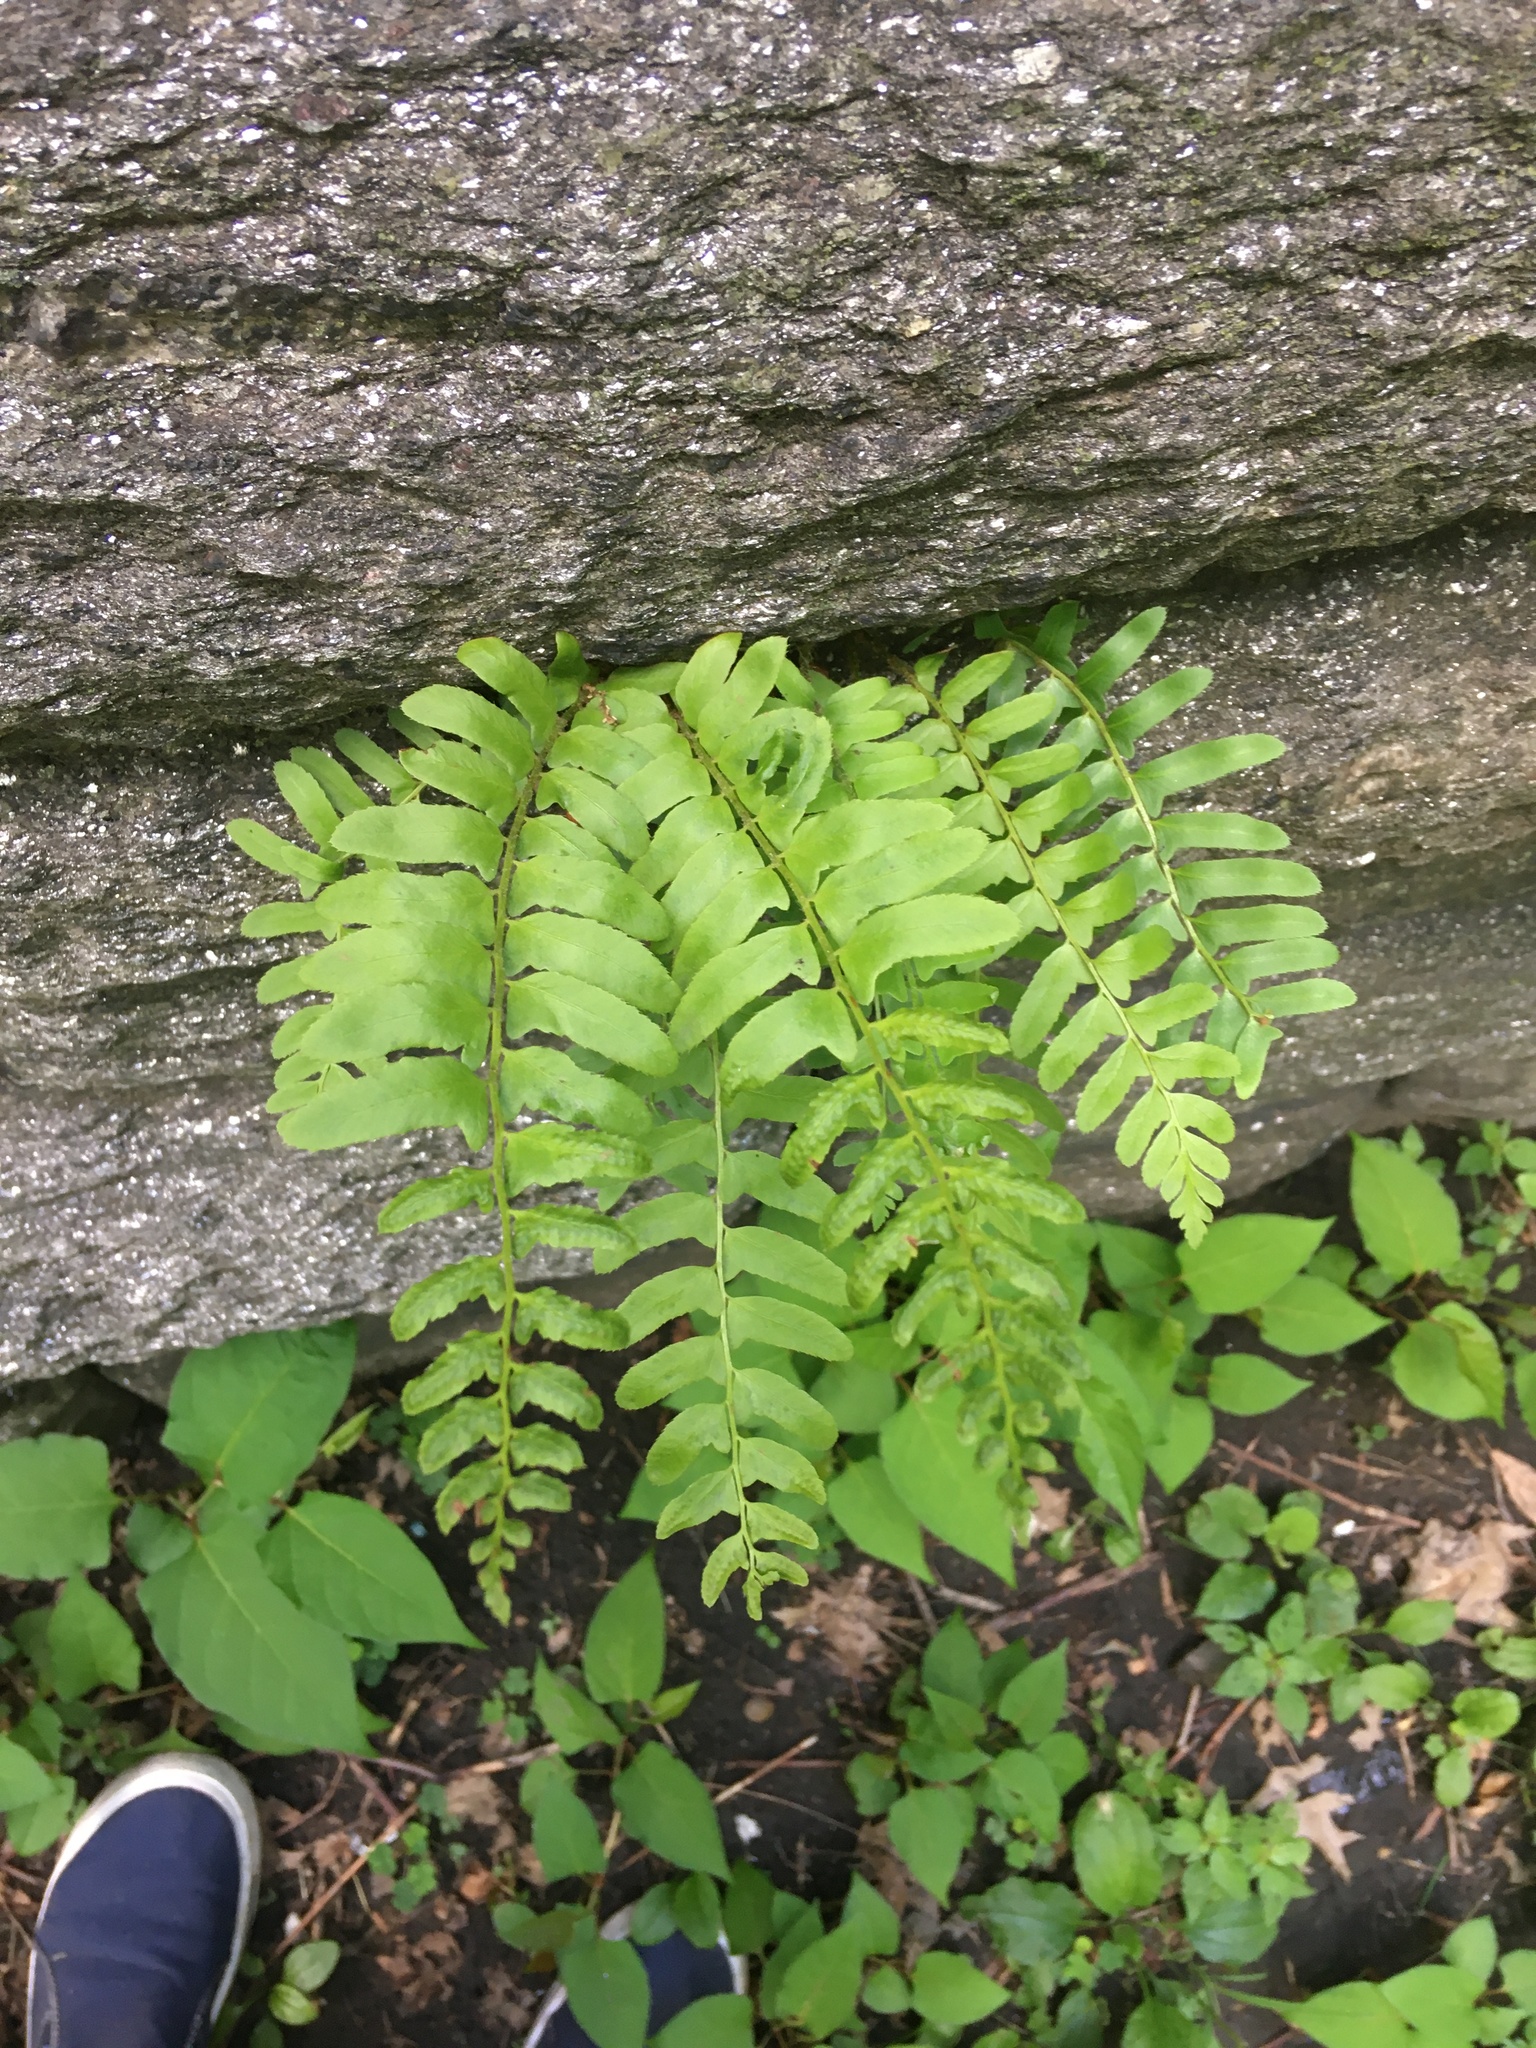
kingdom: Plantae
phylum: Tracheophyta
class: Polypodiopsida
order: Polypodiales
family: Dryopteridaceae
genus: Polystichum
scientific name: Polystichum acrostichoides
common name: Christmas fern
